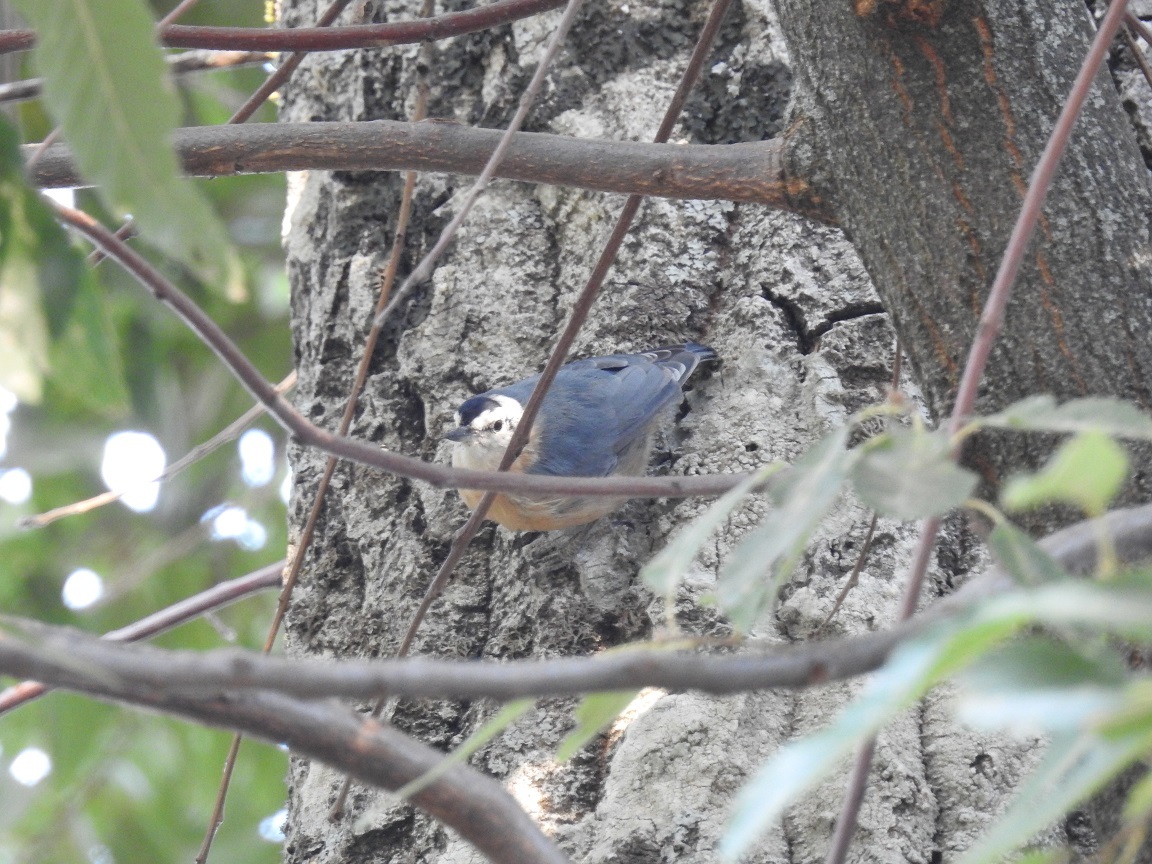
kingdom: Animalia
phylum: Chordata
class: Aves
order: Passeriformes
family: Sittidae
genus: Sitta
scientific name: Sitta ledanti
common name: Algerian nuthatch
